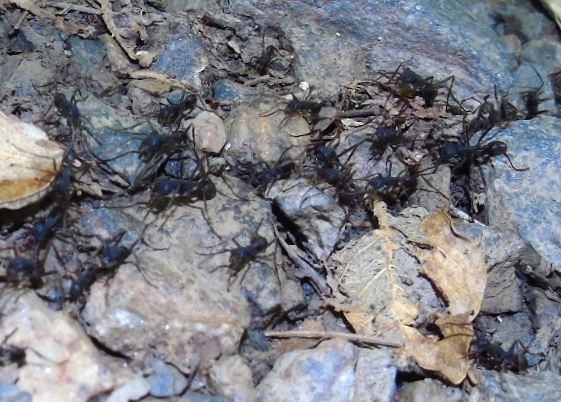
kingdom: Animalia
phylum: Arthropoda
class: Insecta
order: Hymenoptera
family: Formicidae
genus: Eciton
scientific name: Eciton
